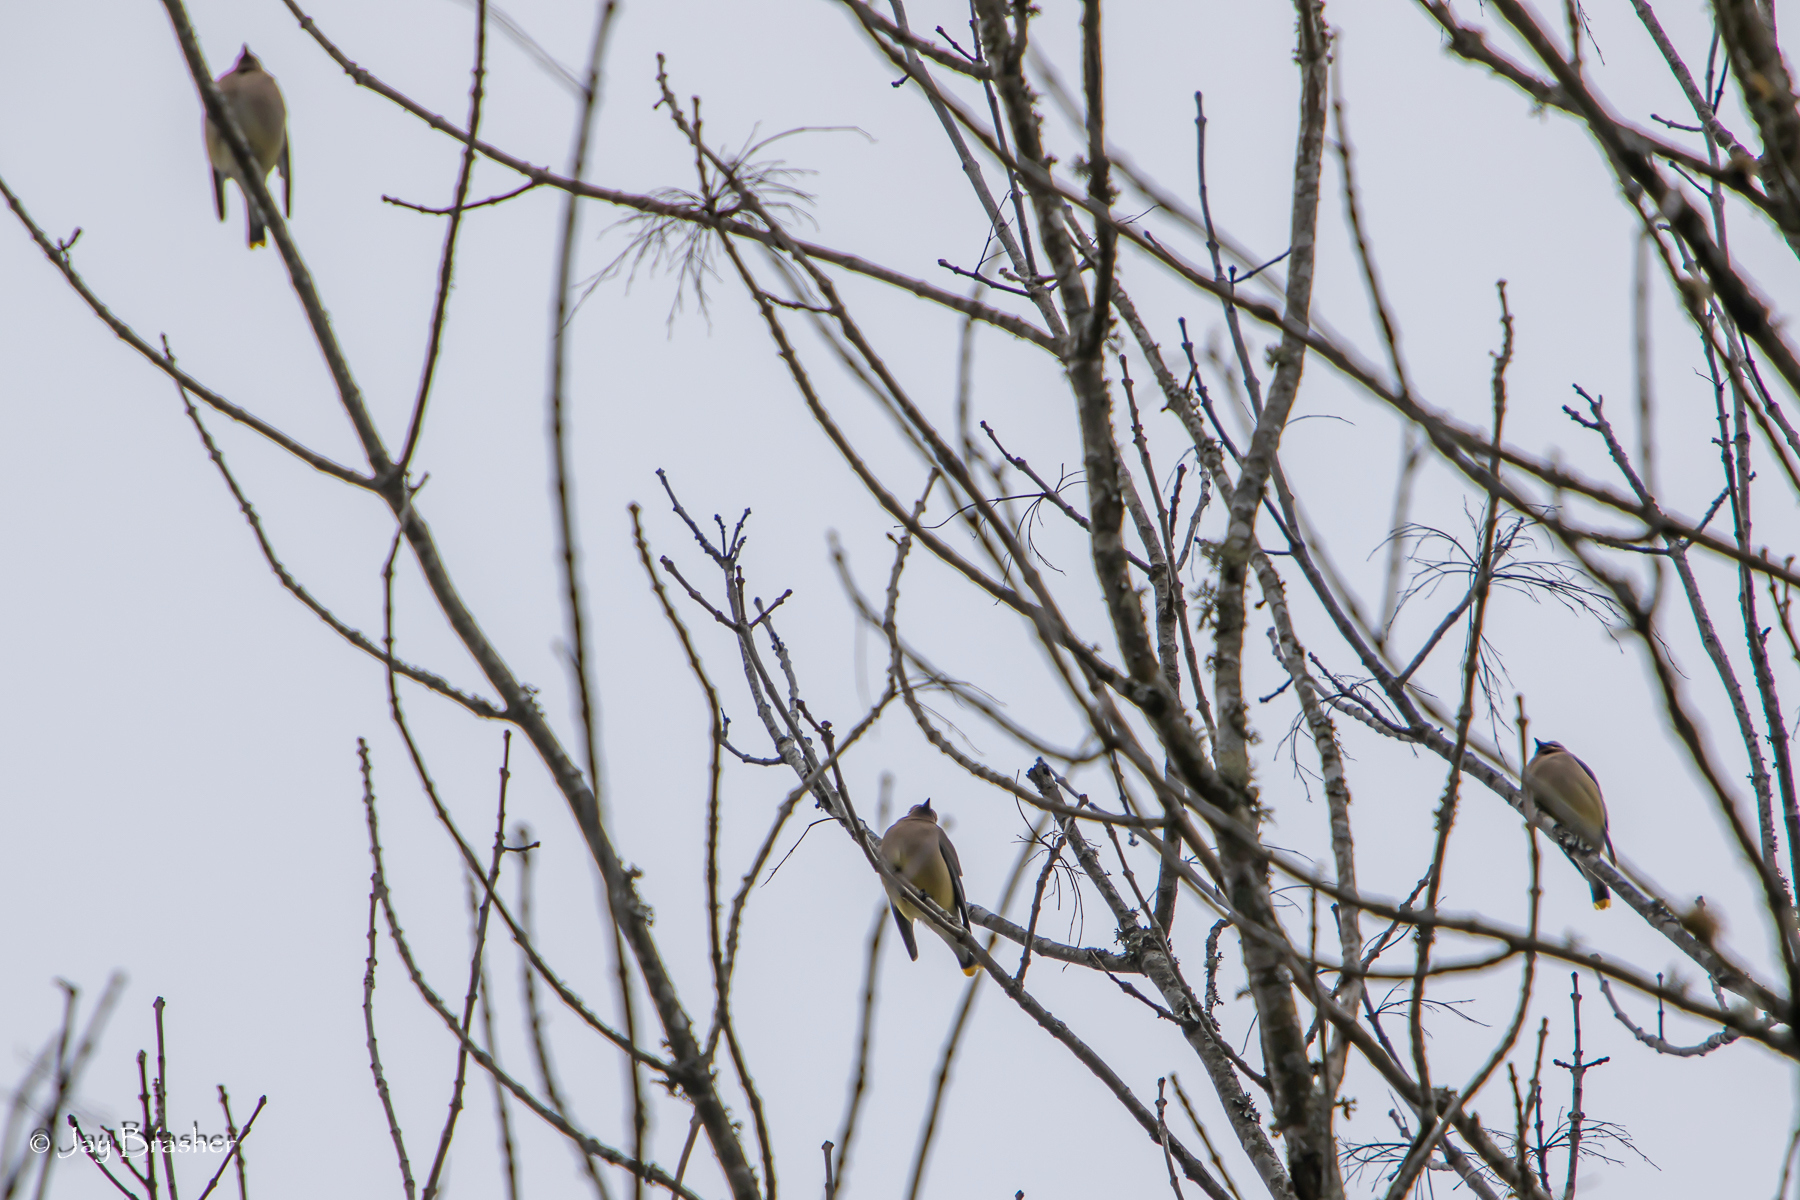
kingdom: Animalia
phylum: Chordata
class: Aves
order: Passeriformes
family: Bombycillidae
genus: Bombycilla
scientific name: Bombycilla cedrorum
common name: Cedar waxwing
